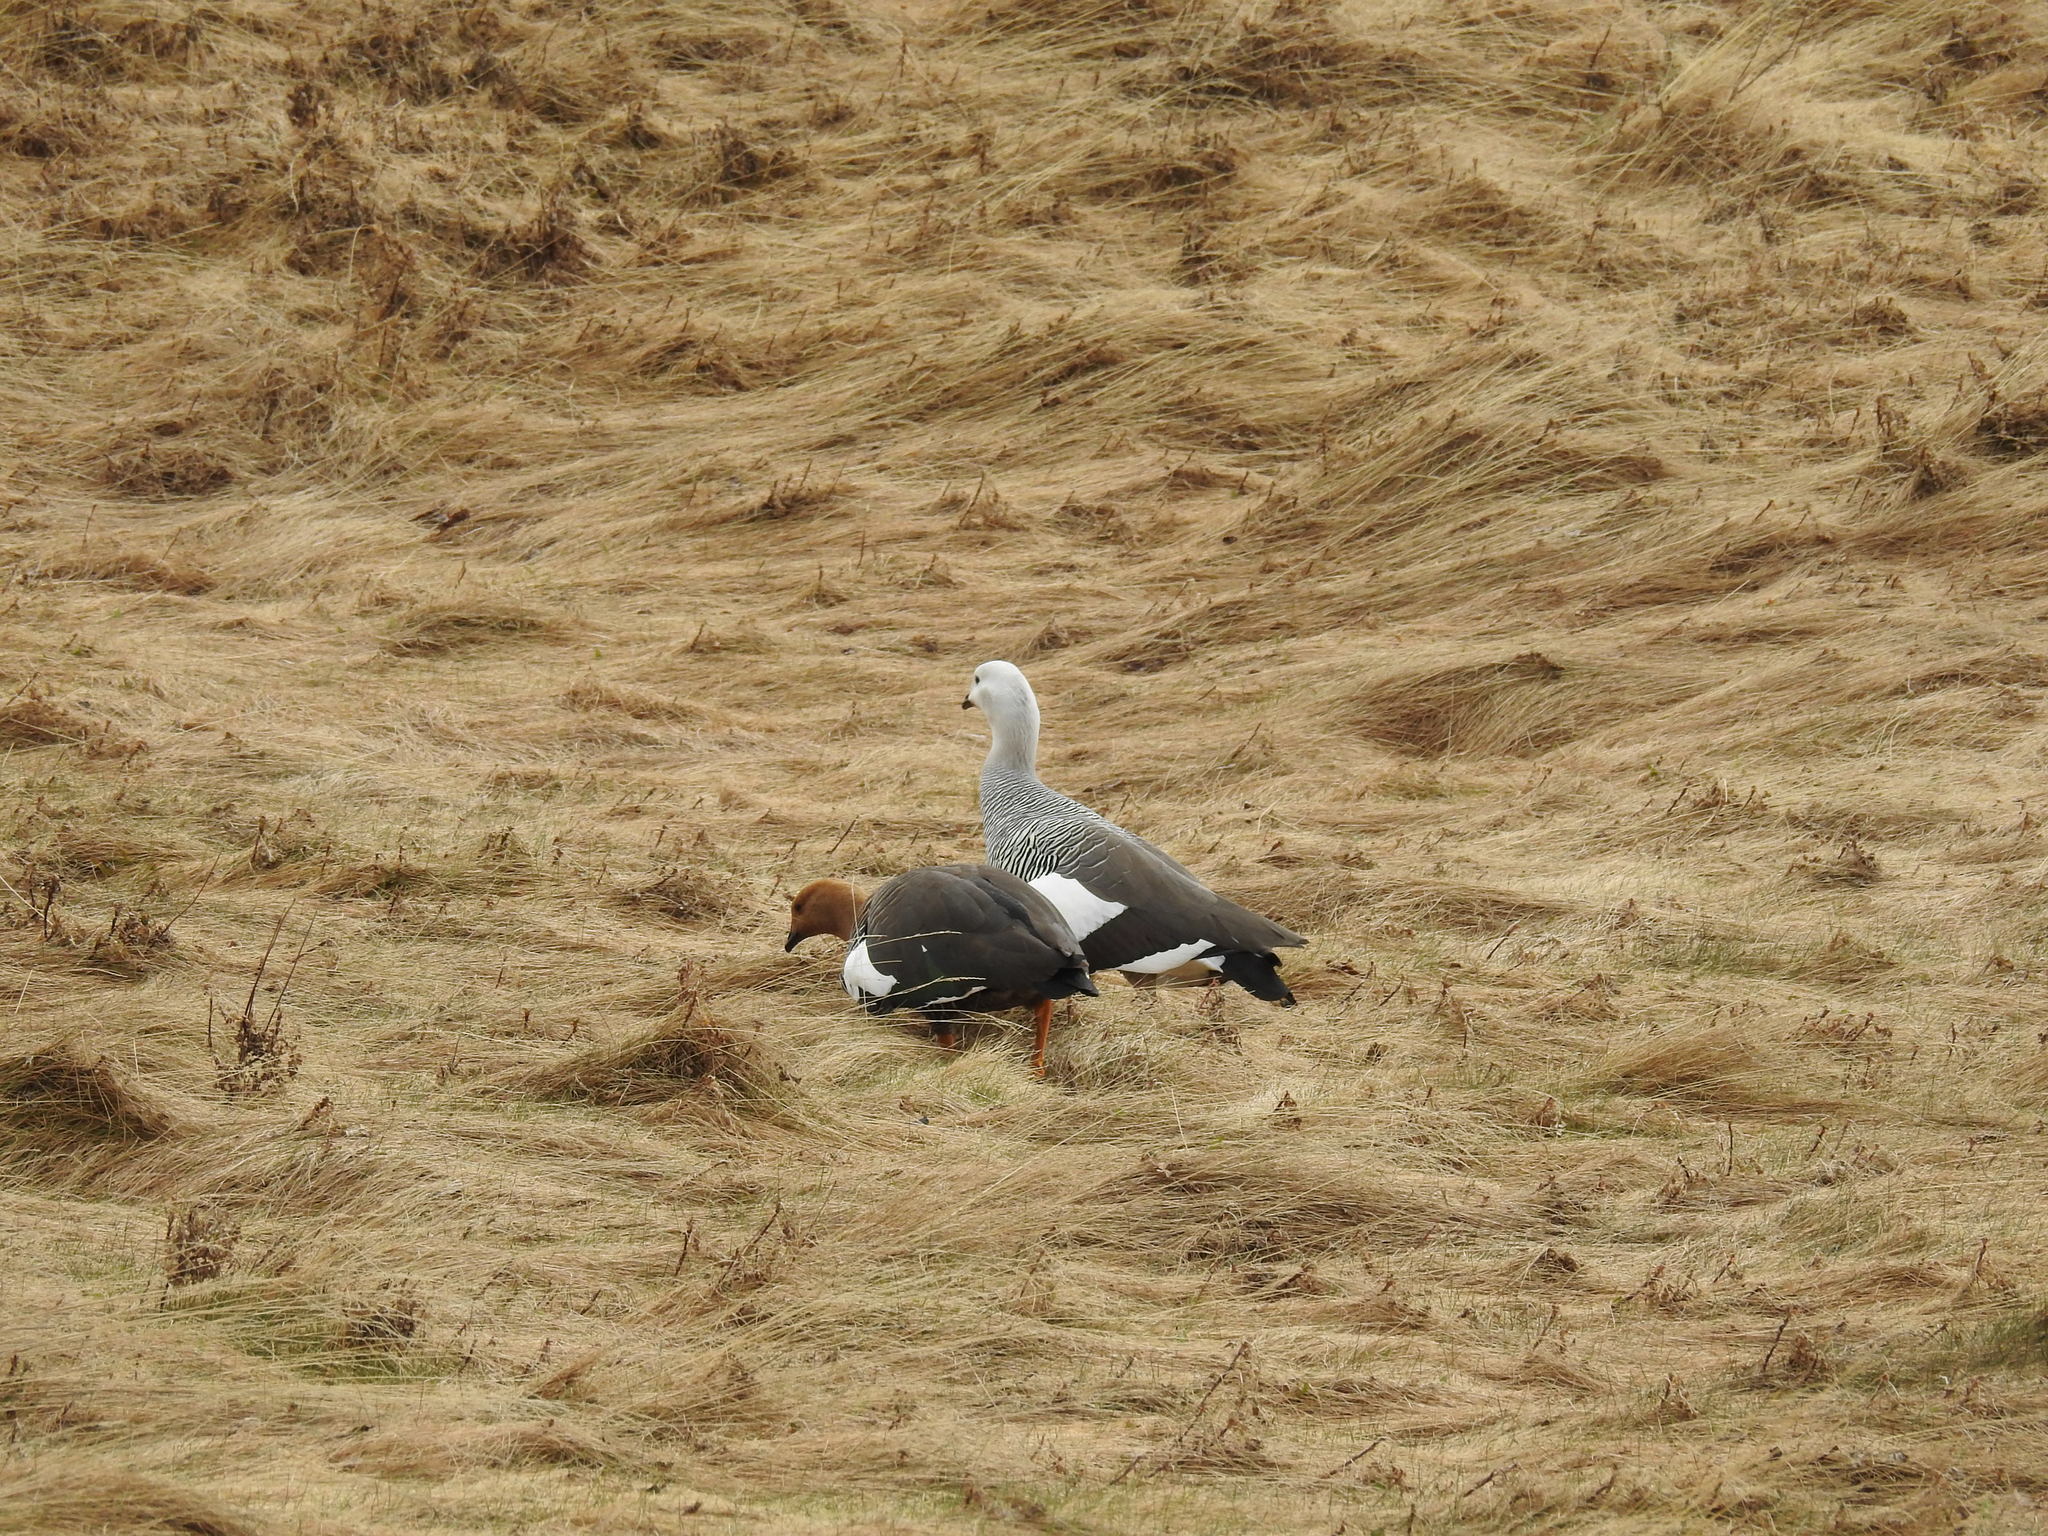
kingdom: Animalia
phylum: Chordata
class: Aves
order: Anseriformes
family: Anatidae
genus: Chloephaga
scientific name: Chloephaga picta
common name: Upland goose
